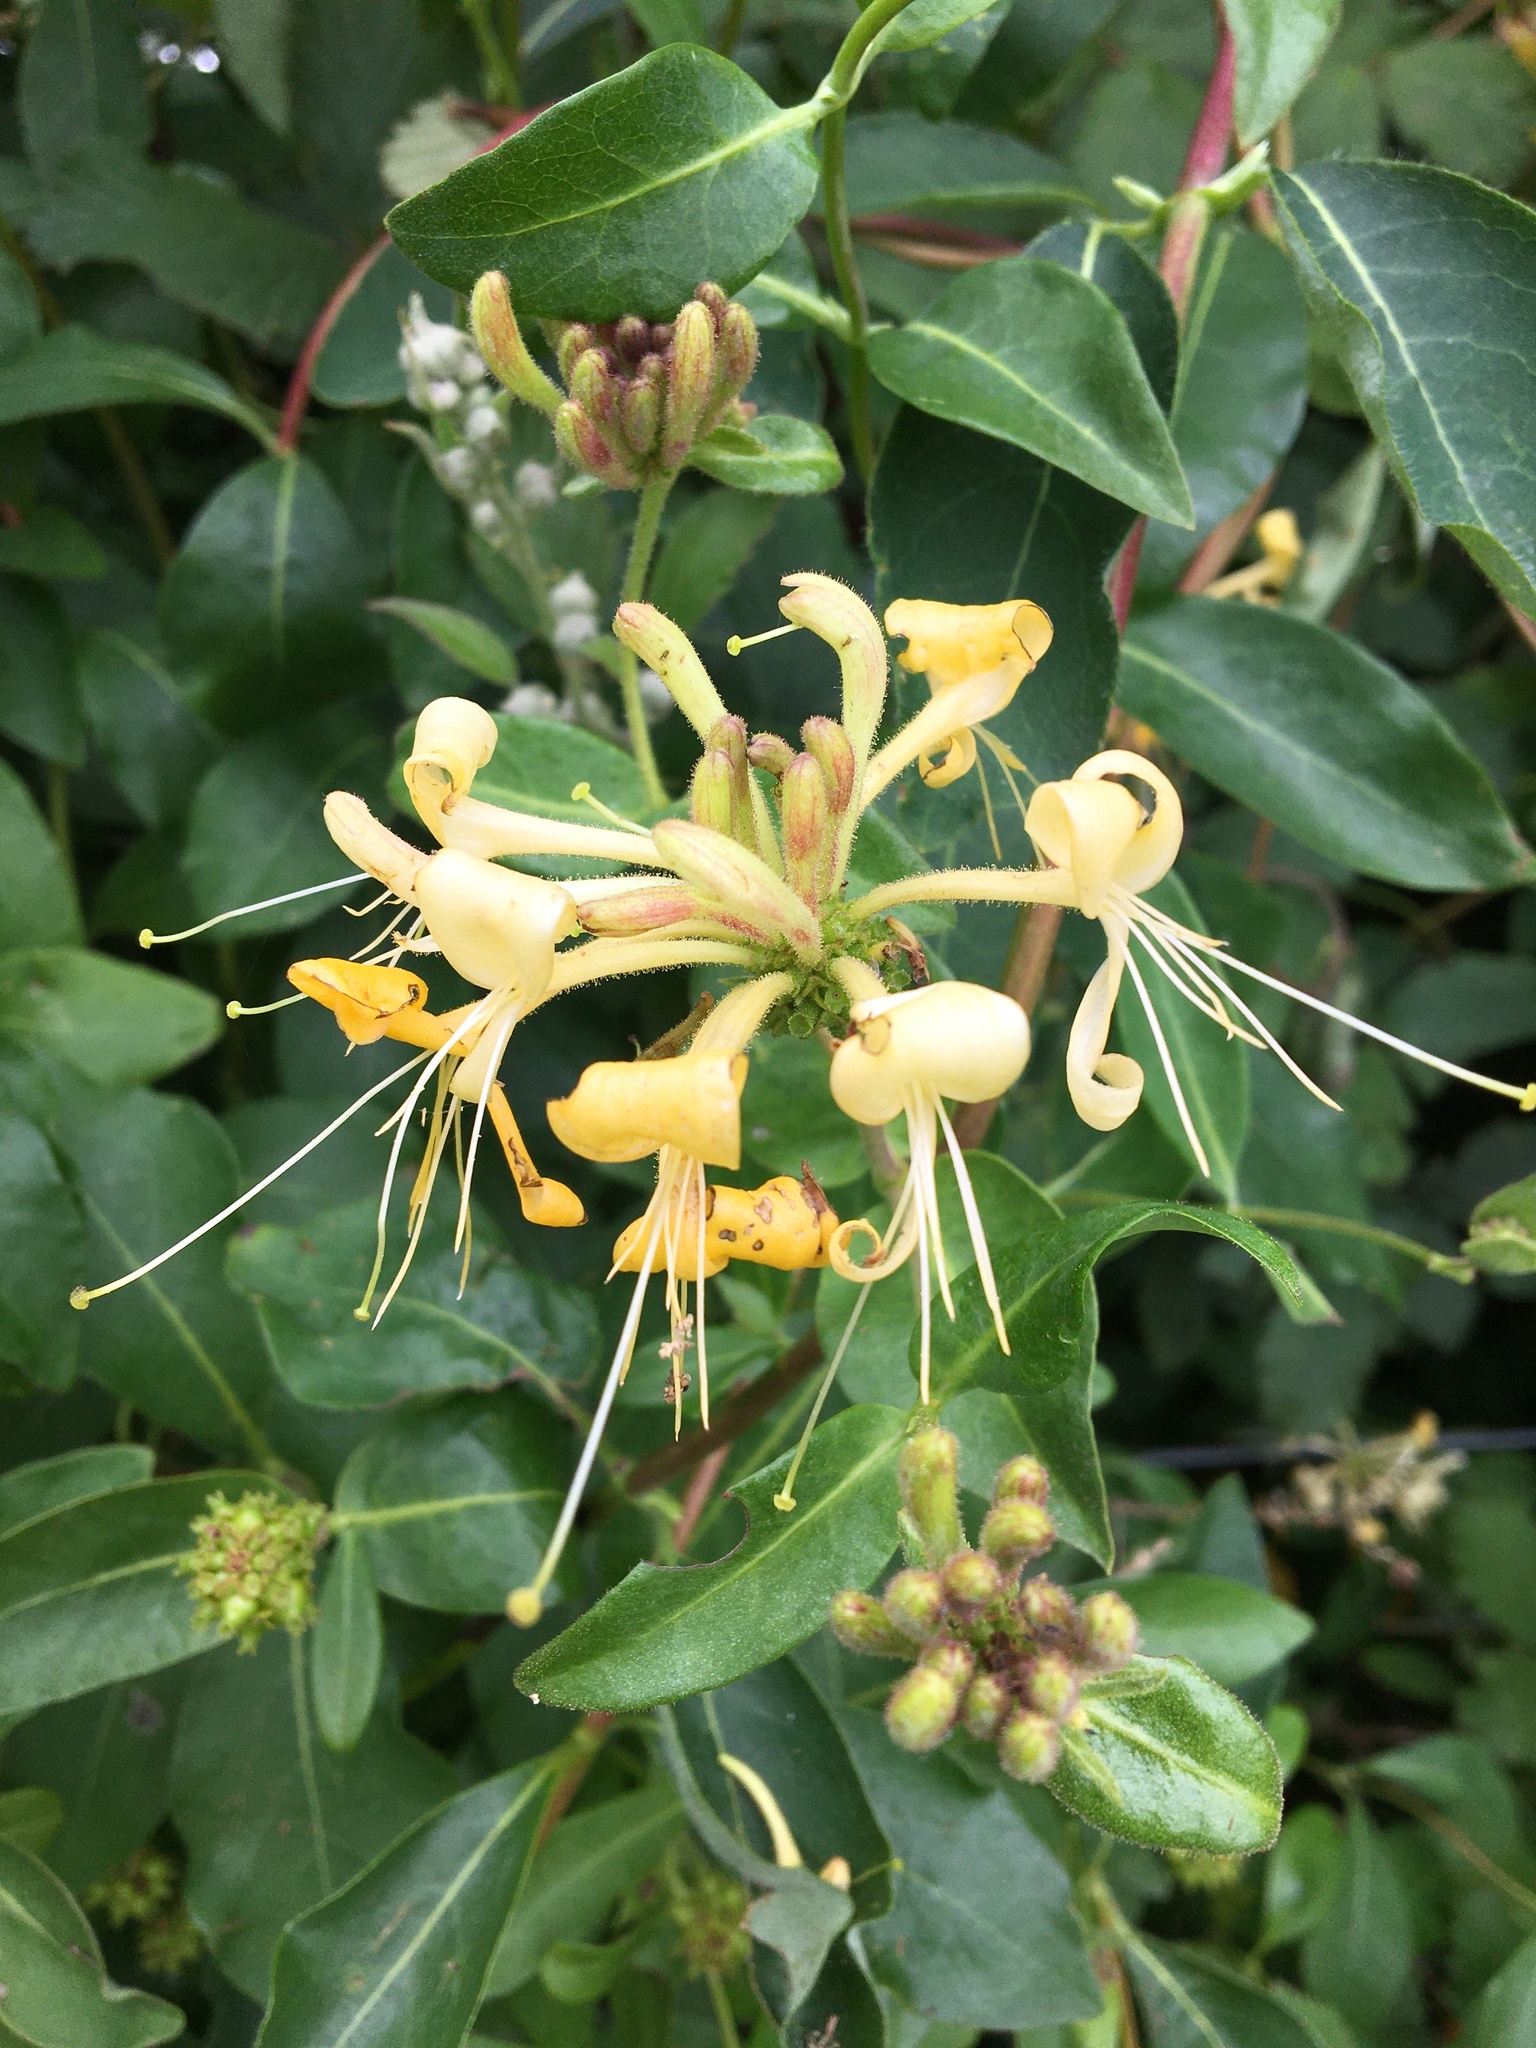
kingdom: Plantae
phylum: Tracheophyta
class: Magnoliopsida
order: Dipsacales
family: Caprifoliaceae
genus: Lonicera
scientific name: Lonicera periclymenum
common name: European honeysuckle
